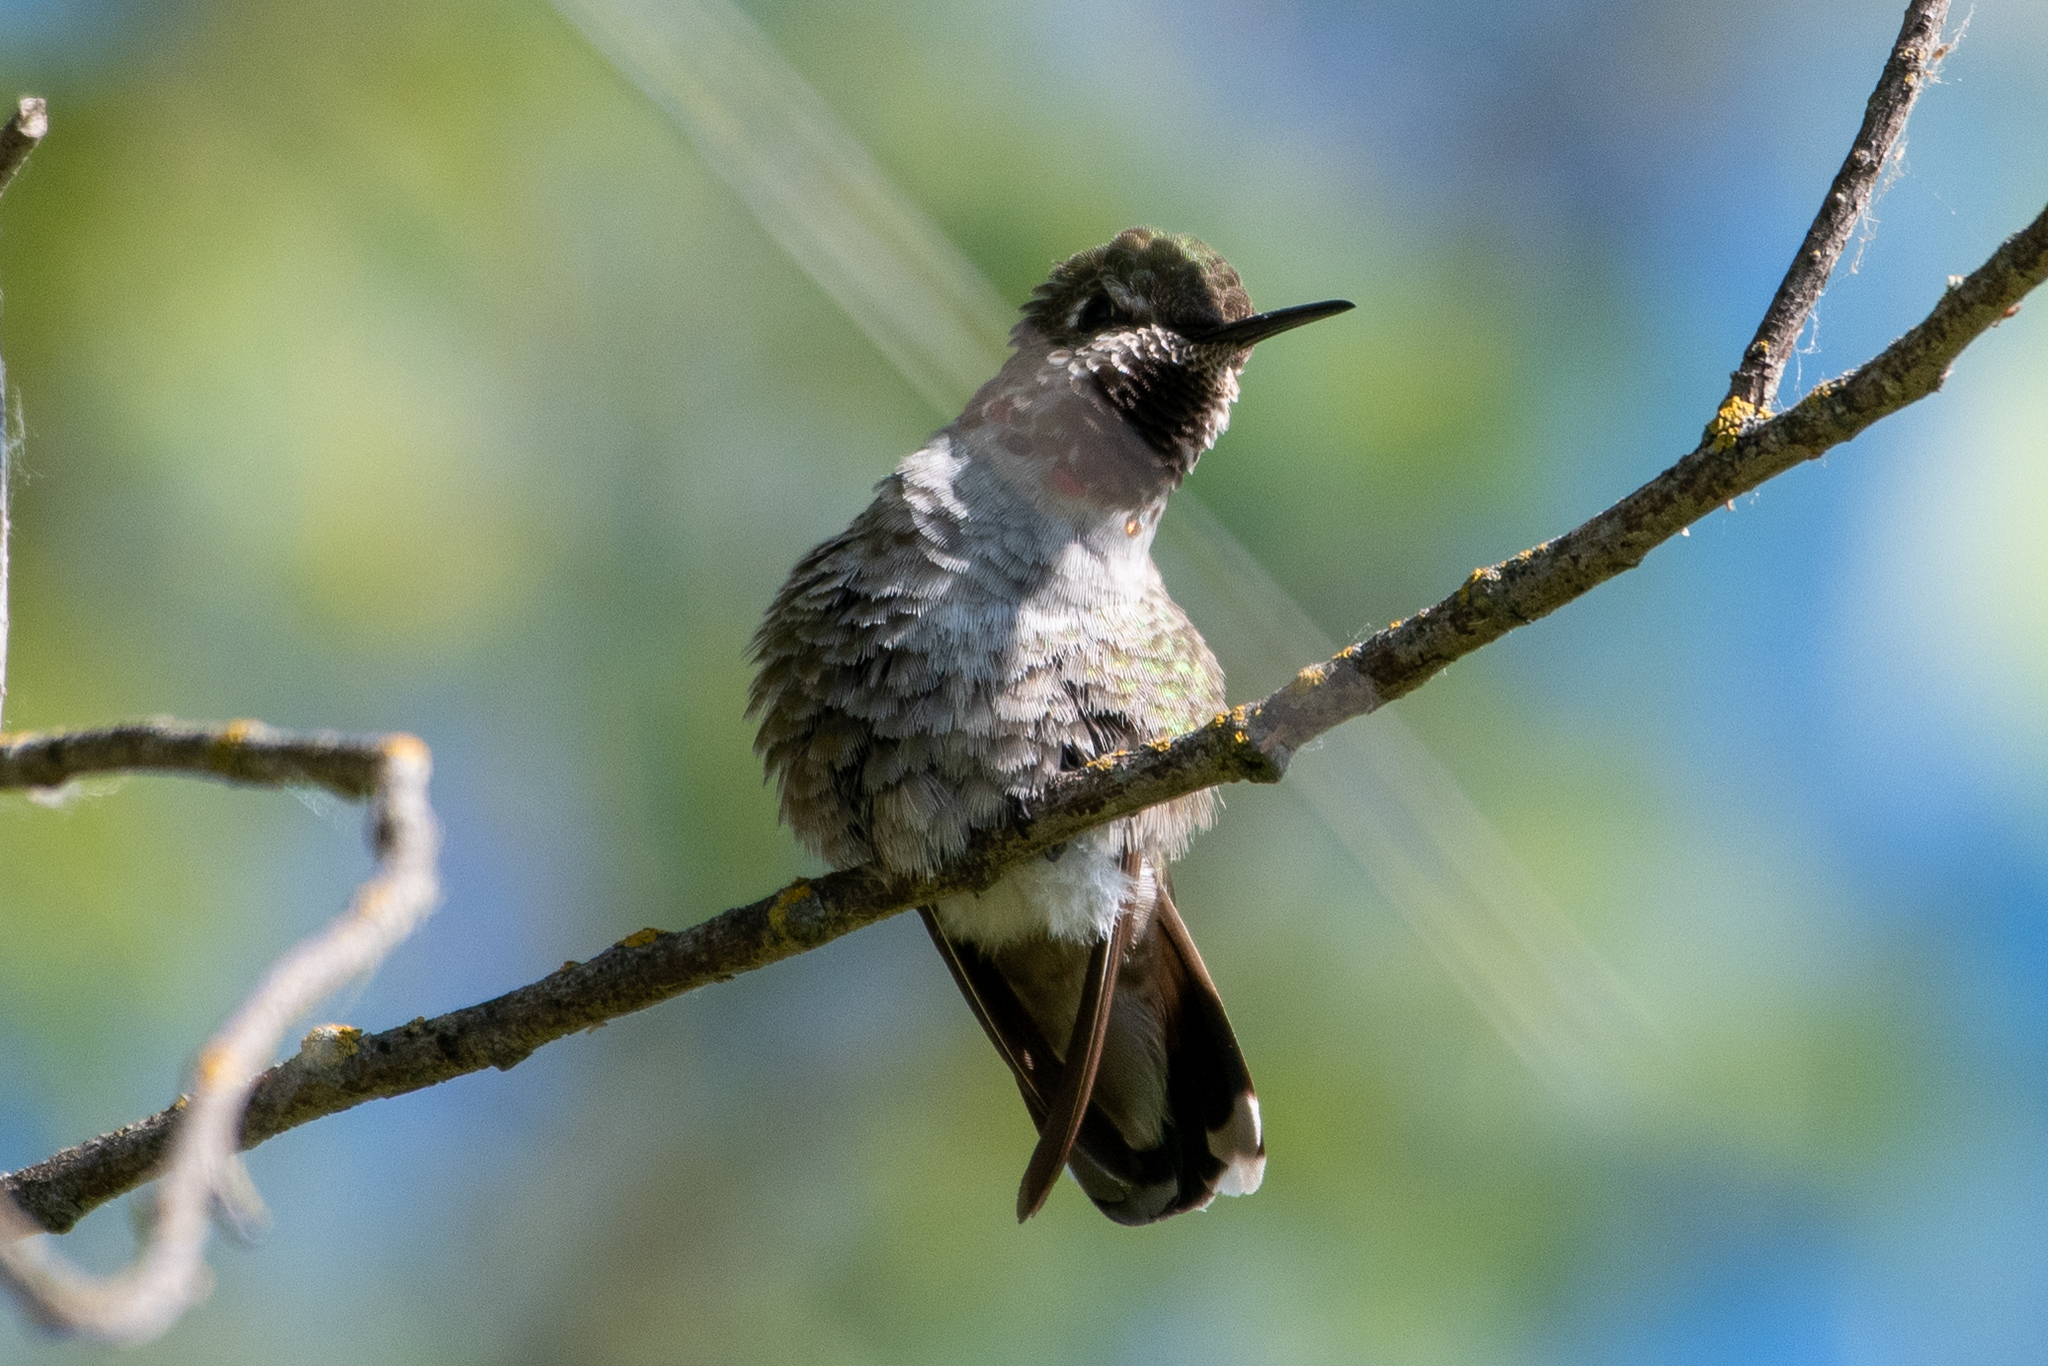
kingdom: Animalia
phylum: Chordata
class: Aves
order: Apodiformes
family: Trochilidae
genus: Calypte
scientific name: Calypte anna
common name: Anna's hummingbird
